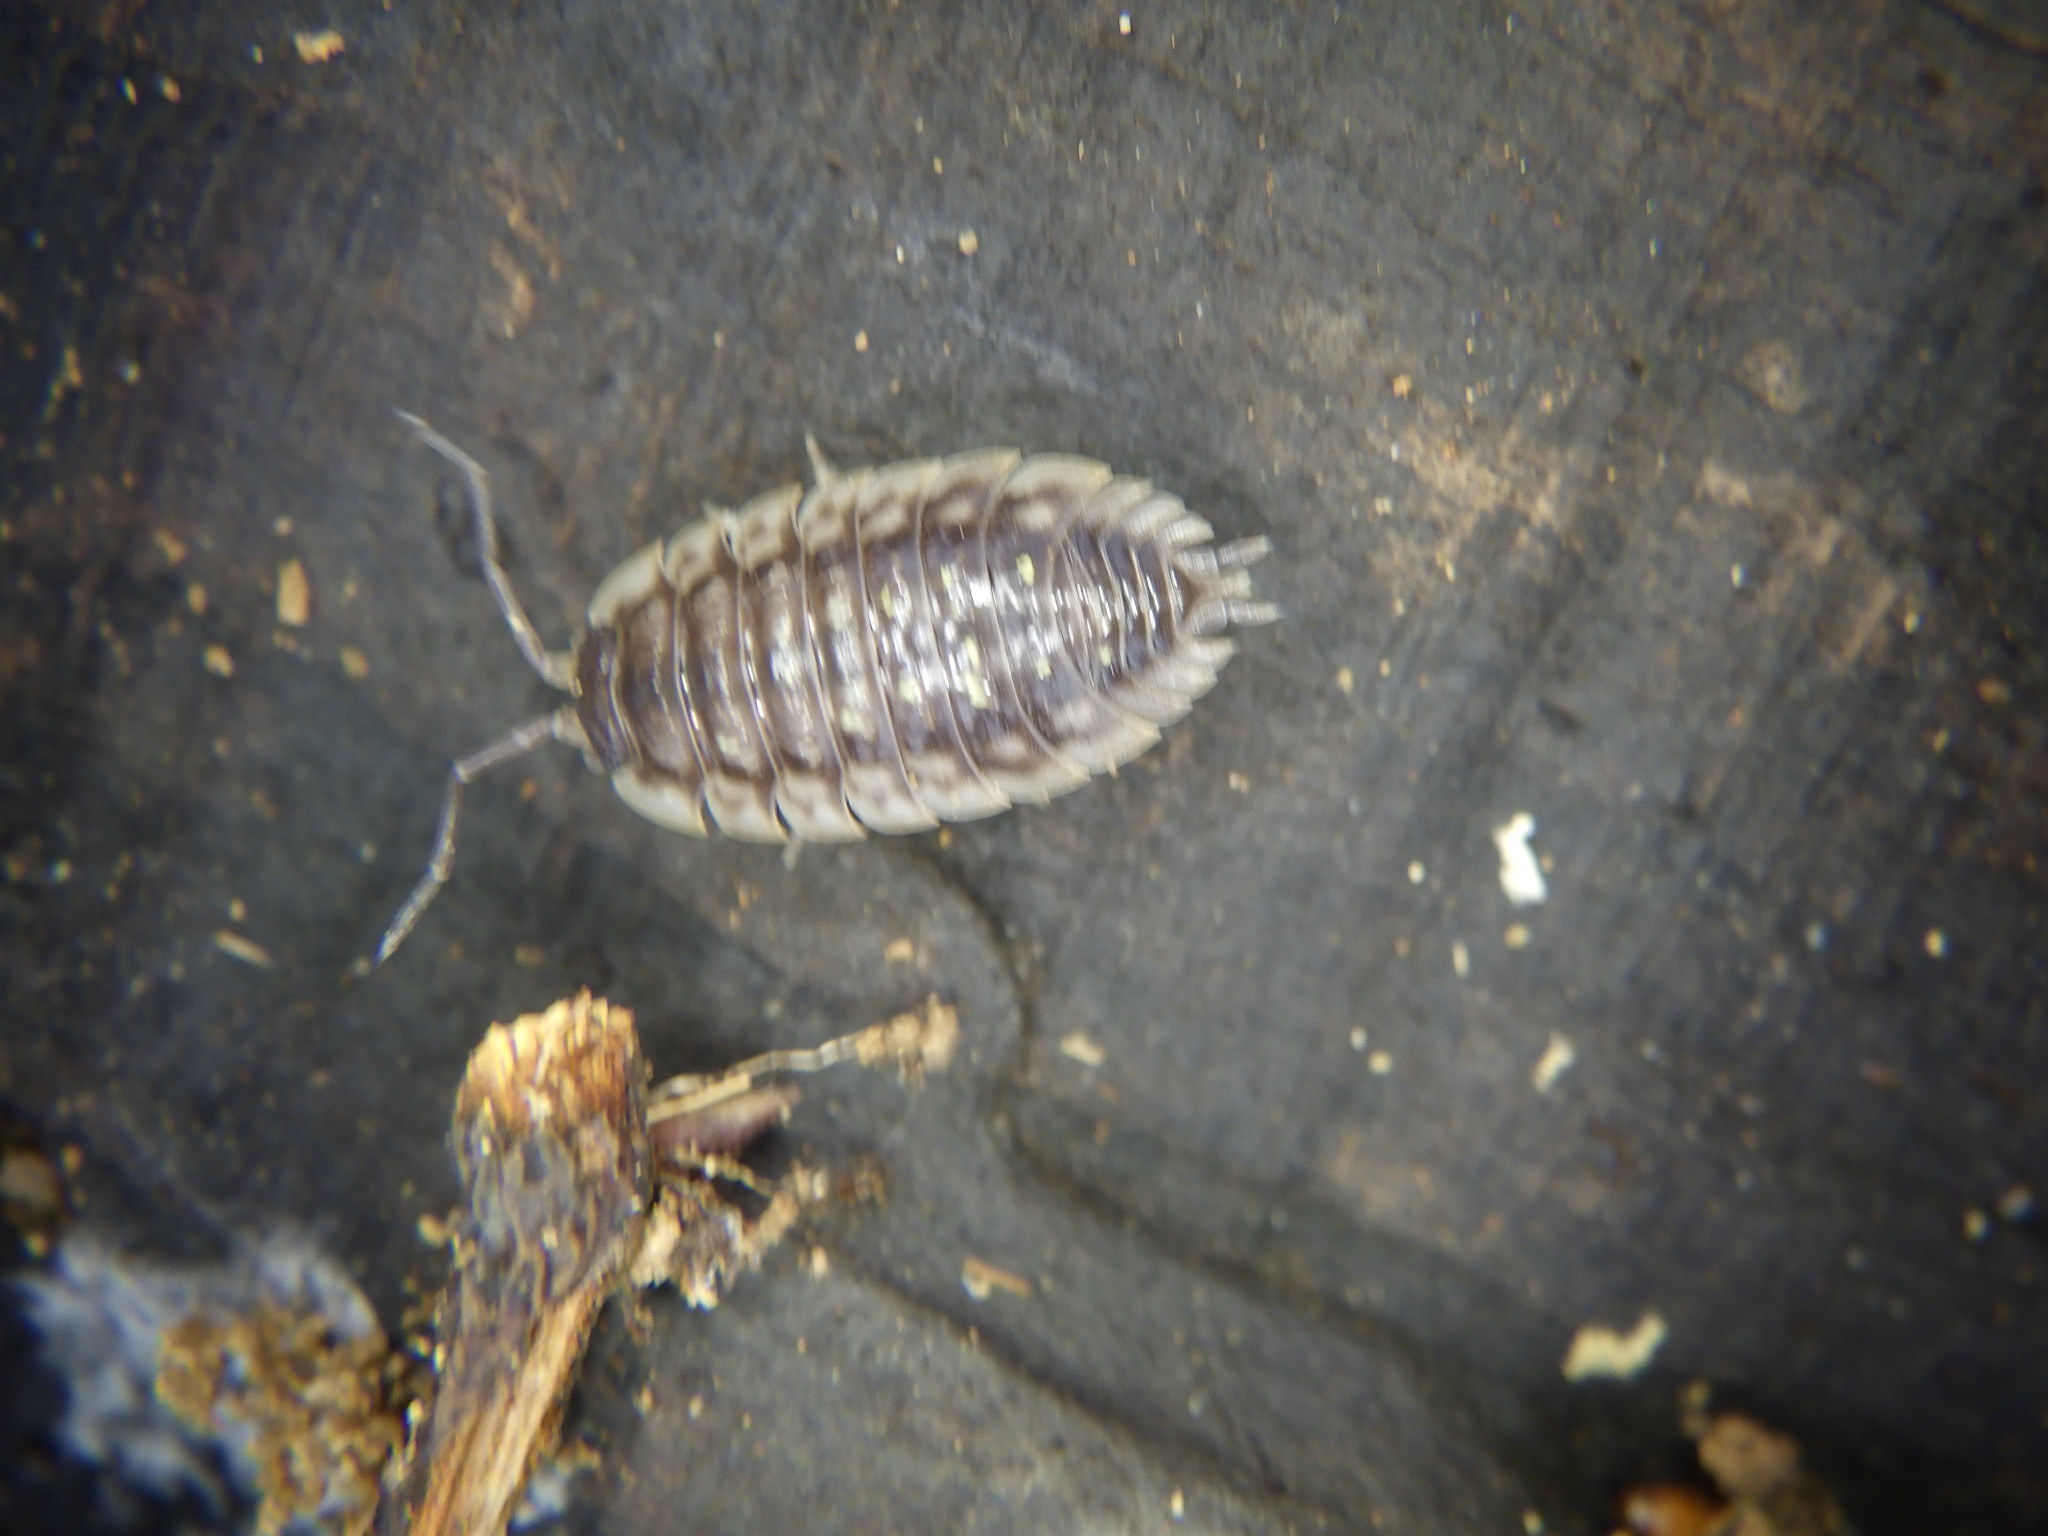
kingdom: Animalia
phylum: Arthropoda
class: Malacostraca
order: Isopoda
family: Oniscidae
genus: Oniscus
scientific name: Oniscus asellus
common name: Common shiny woodlouse
